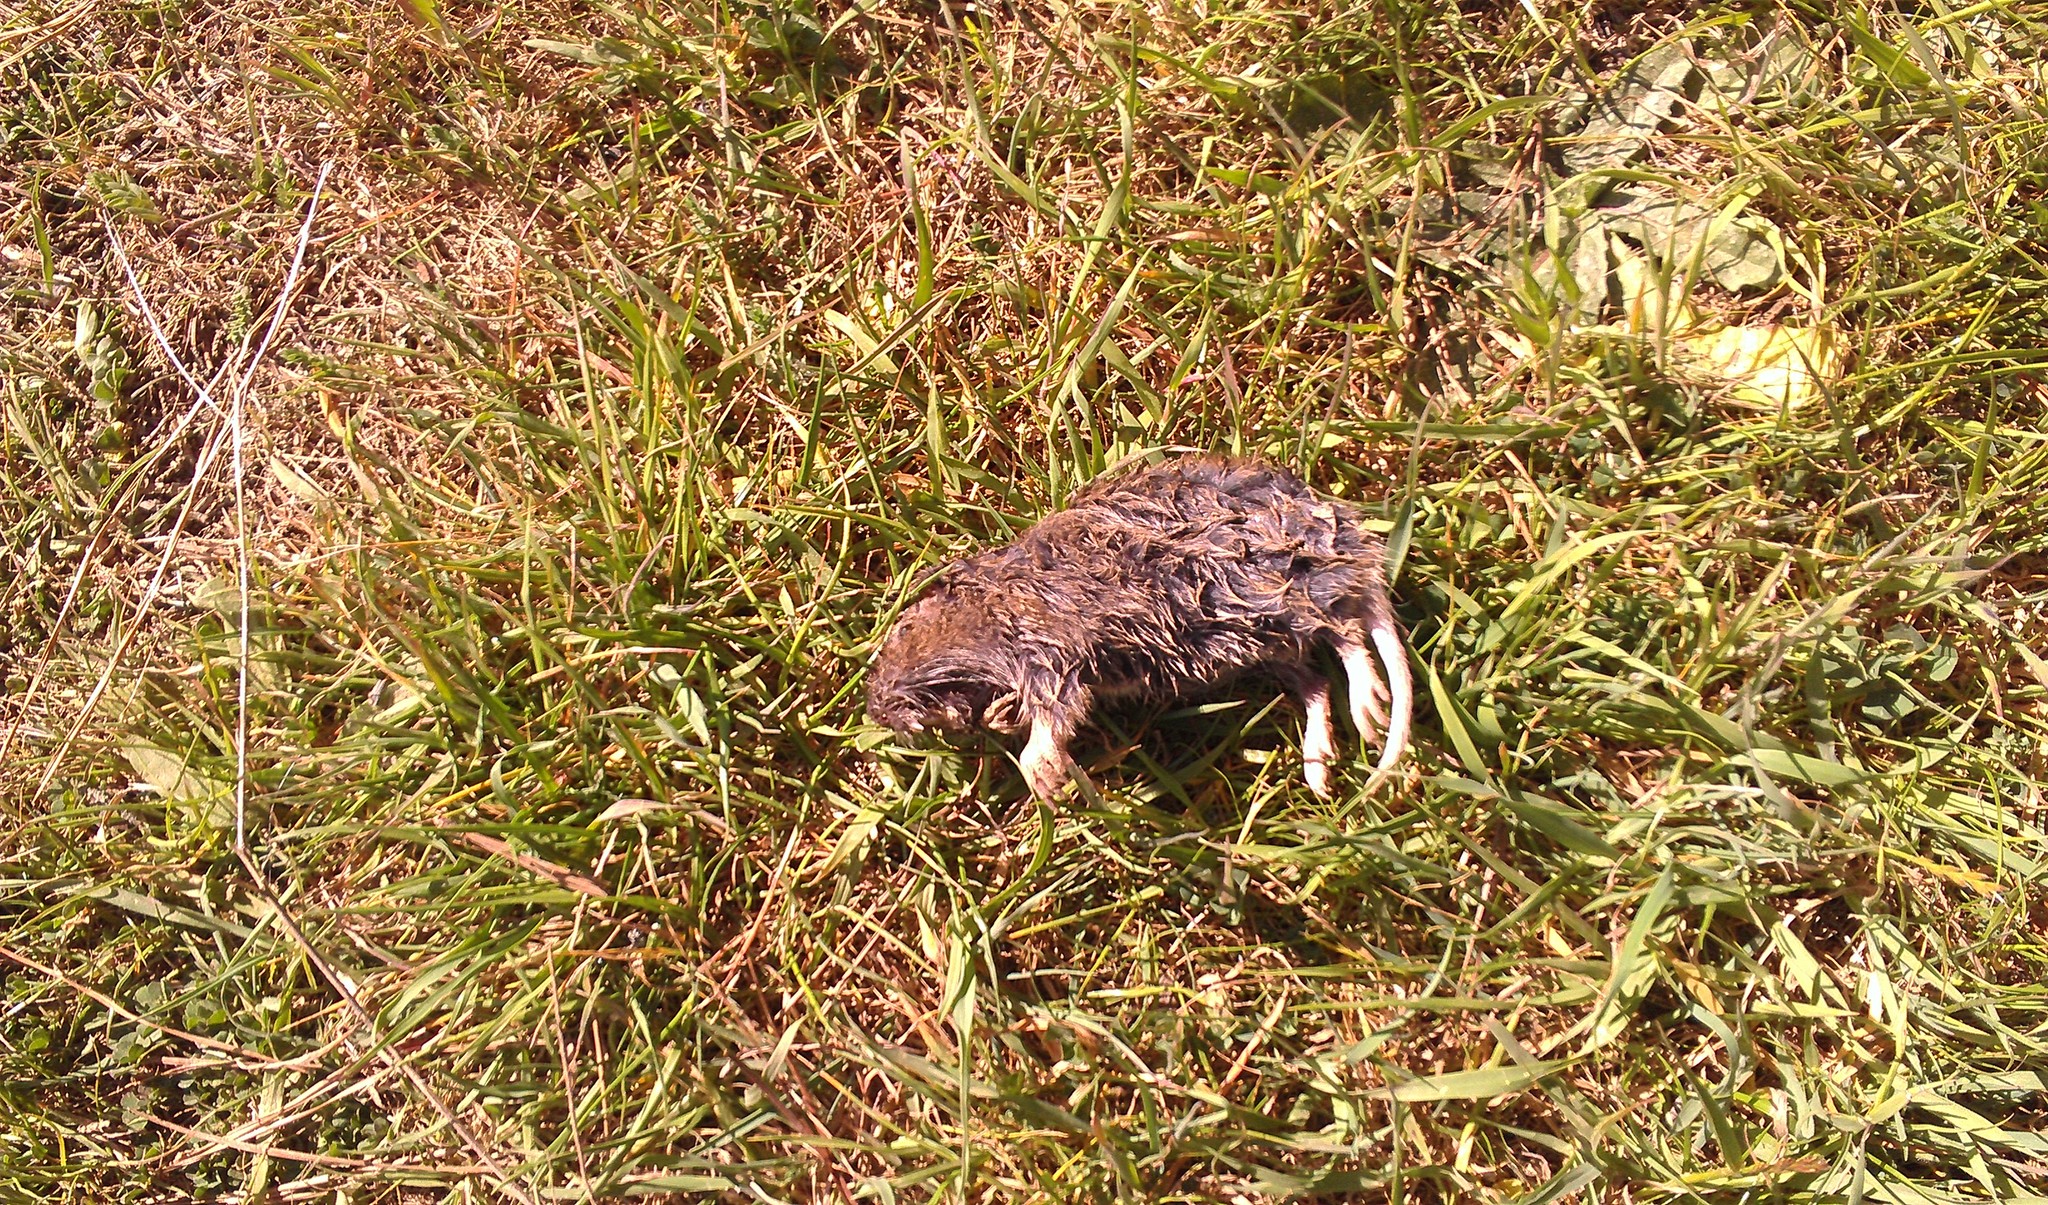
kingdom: Animalia
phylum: Chordata
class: Mammalia
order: Rodentia
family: Geomyidae
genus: Thomomys
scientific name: Thomomys bottae
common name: Botta's pocket gopher
